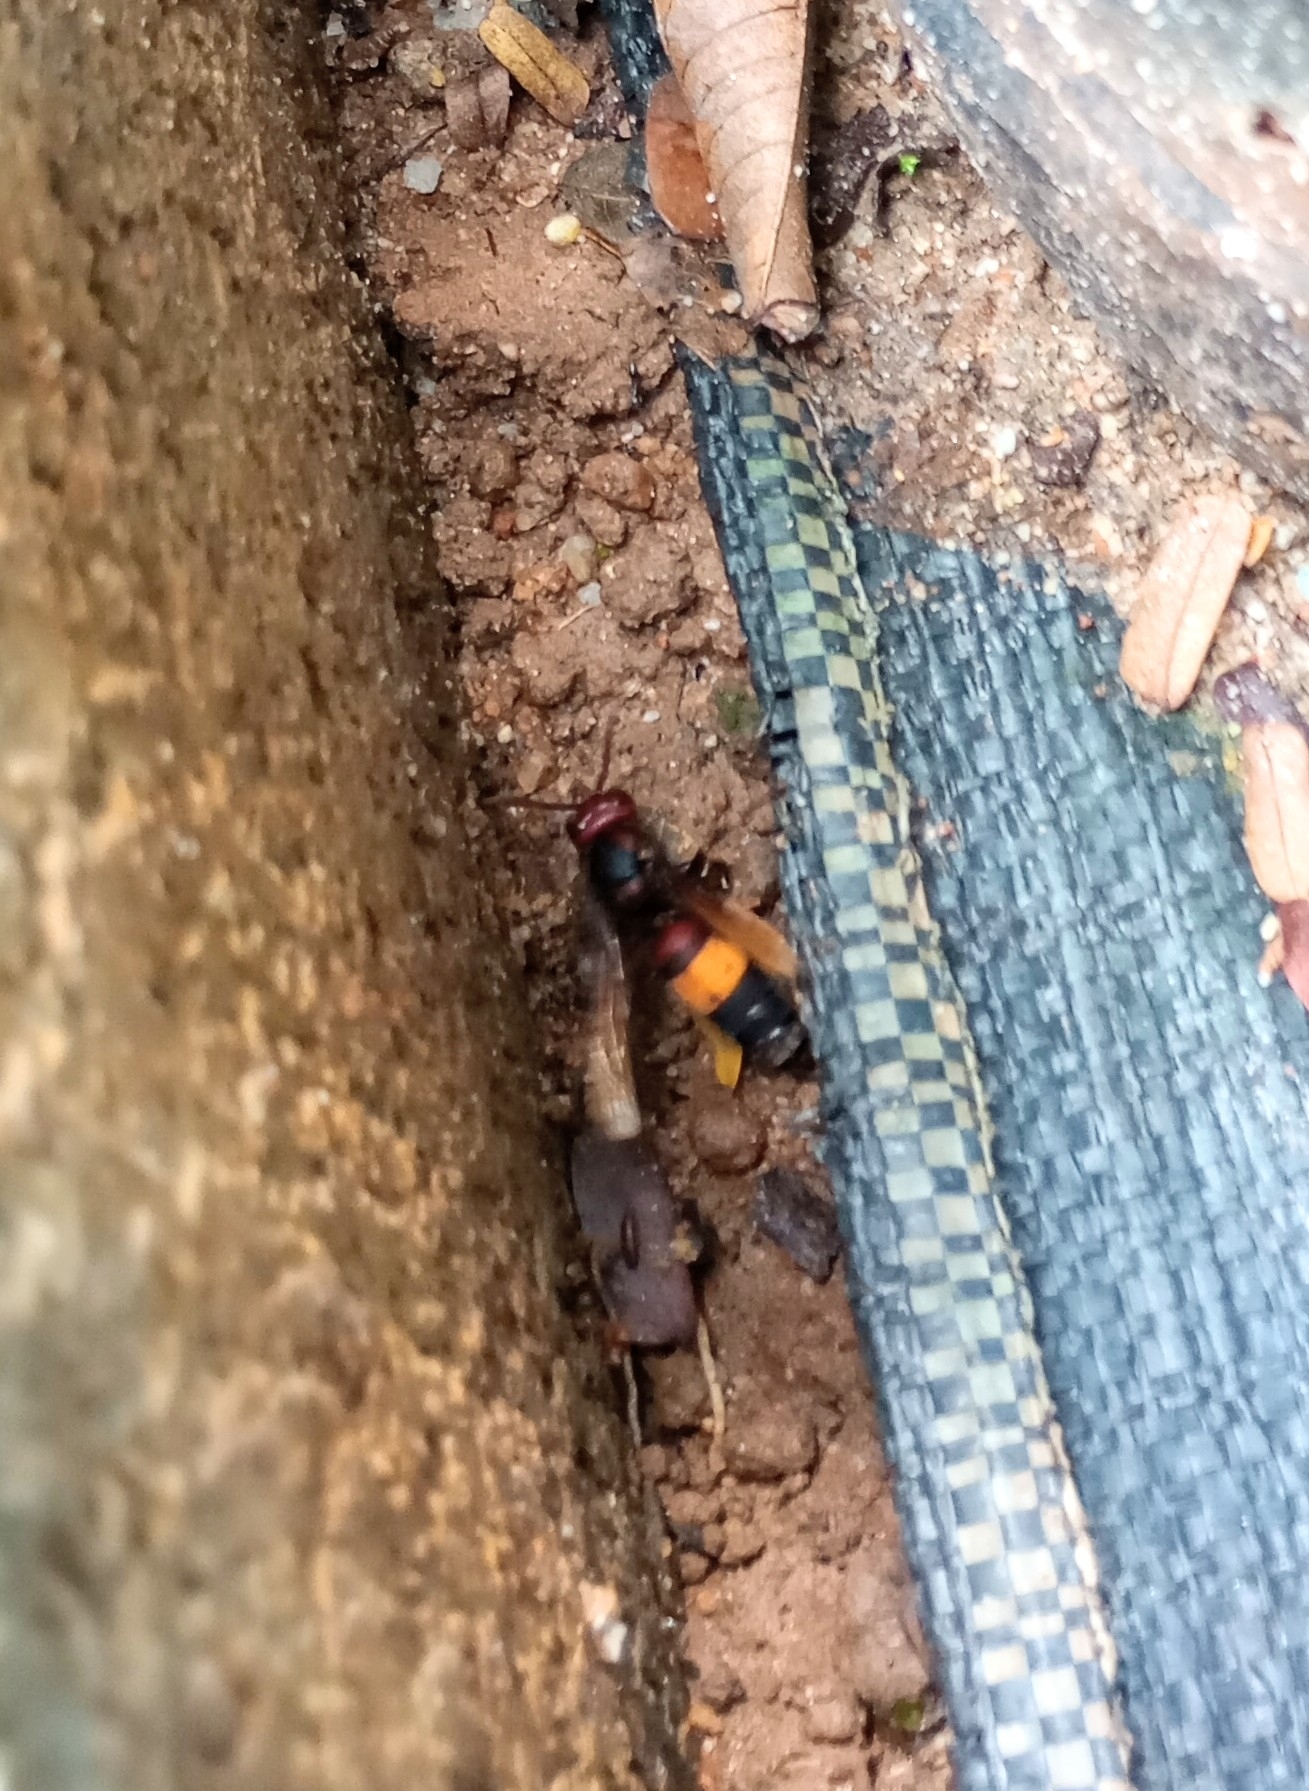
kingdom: Animalia
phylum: Arthropoda
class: Insecta
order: Hymenoptera
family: Vespidae
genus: Vespa
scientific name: Vespa tropica
